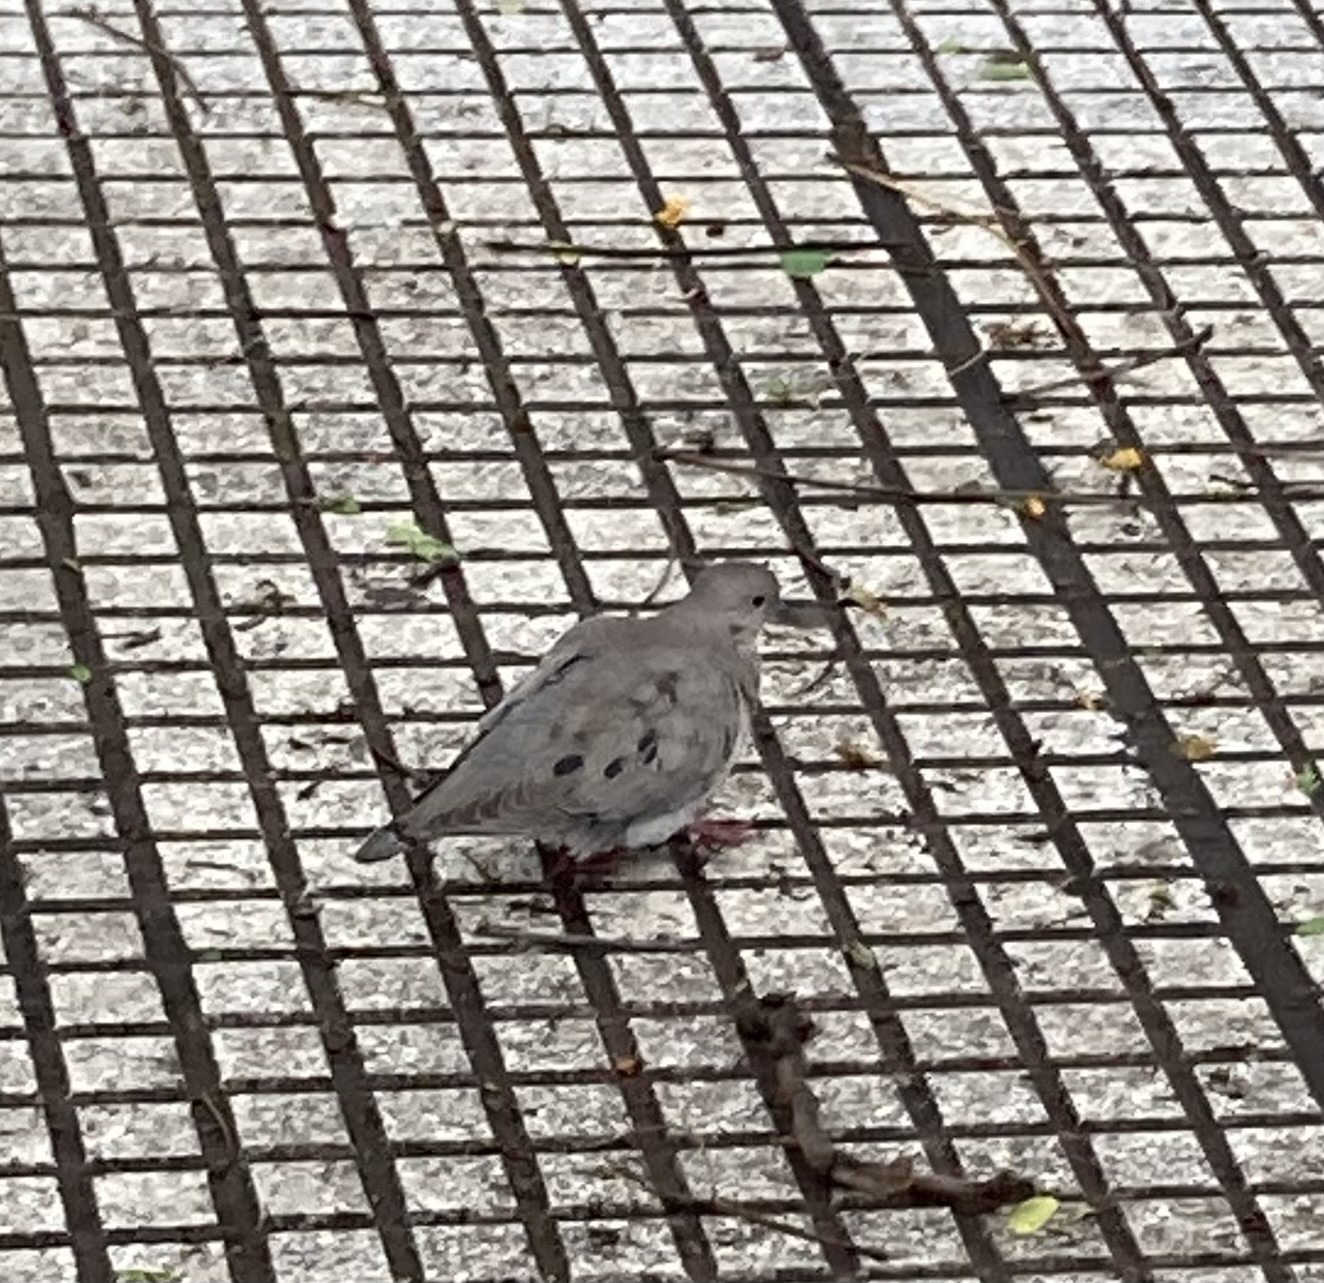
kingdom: Animalia
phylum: Chordata
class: Aves
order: Columbiformes
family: Columbidae
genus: Zenaida
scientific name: Zenaida auriculata
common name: Eared dove
